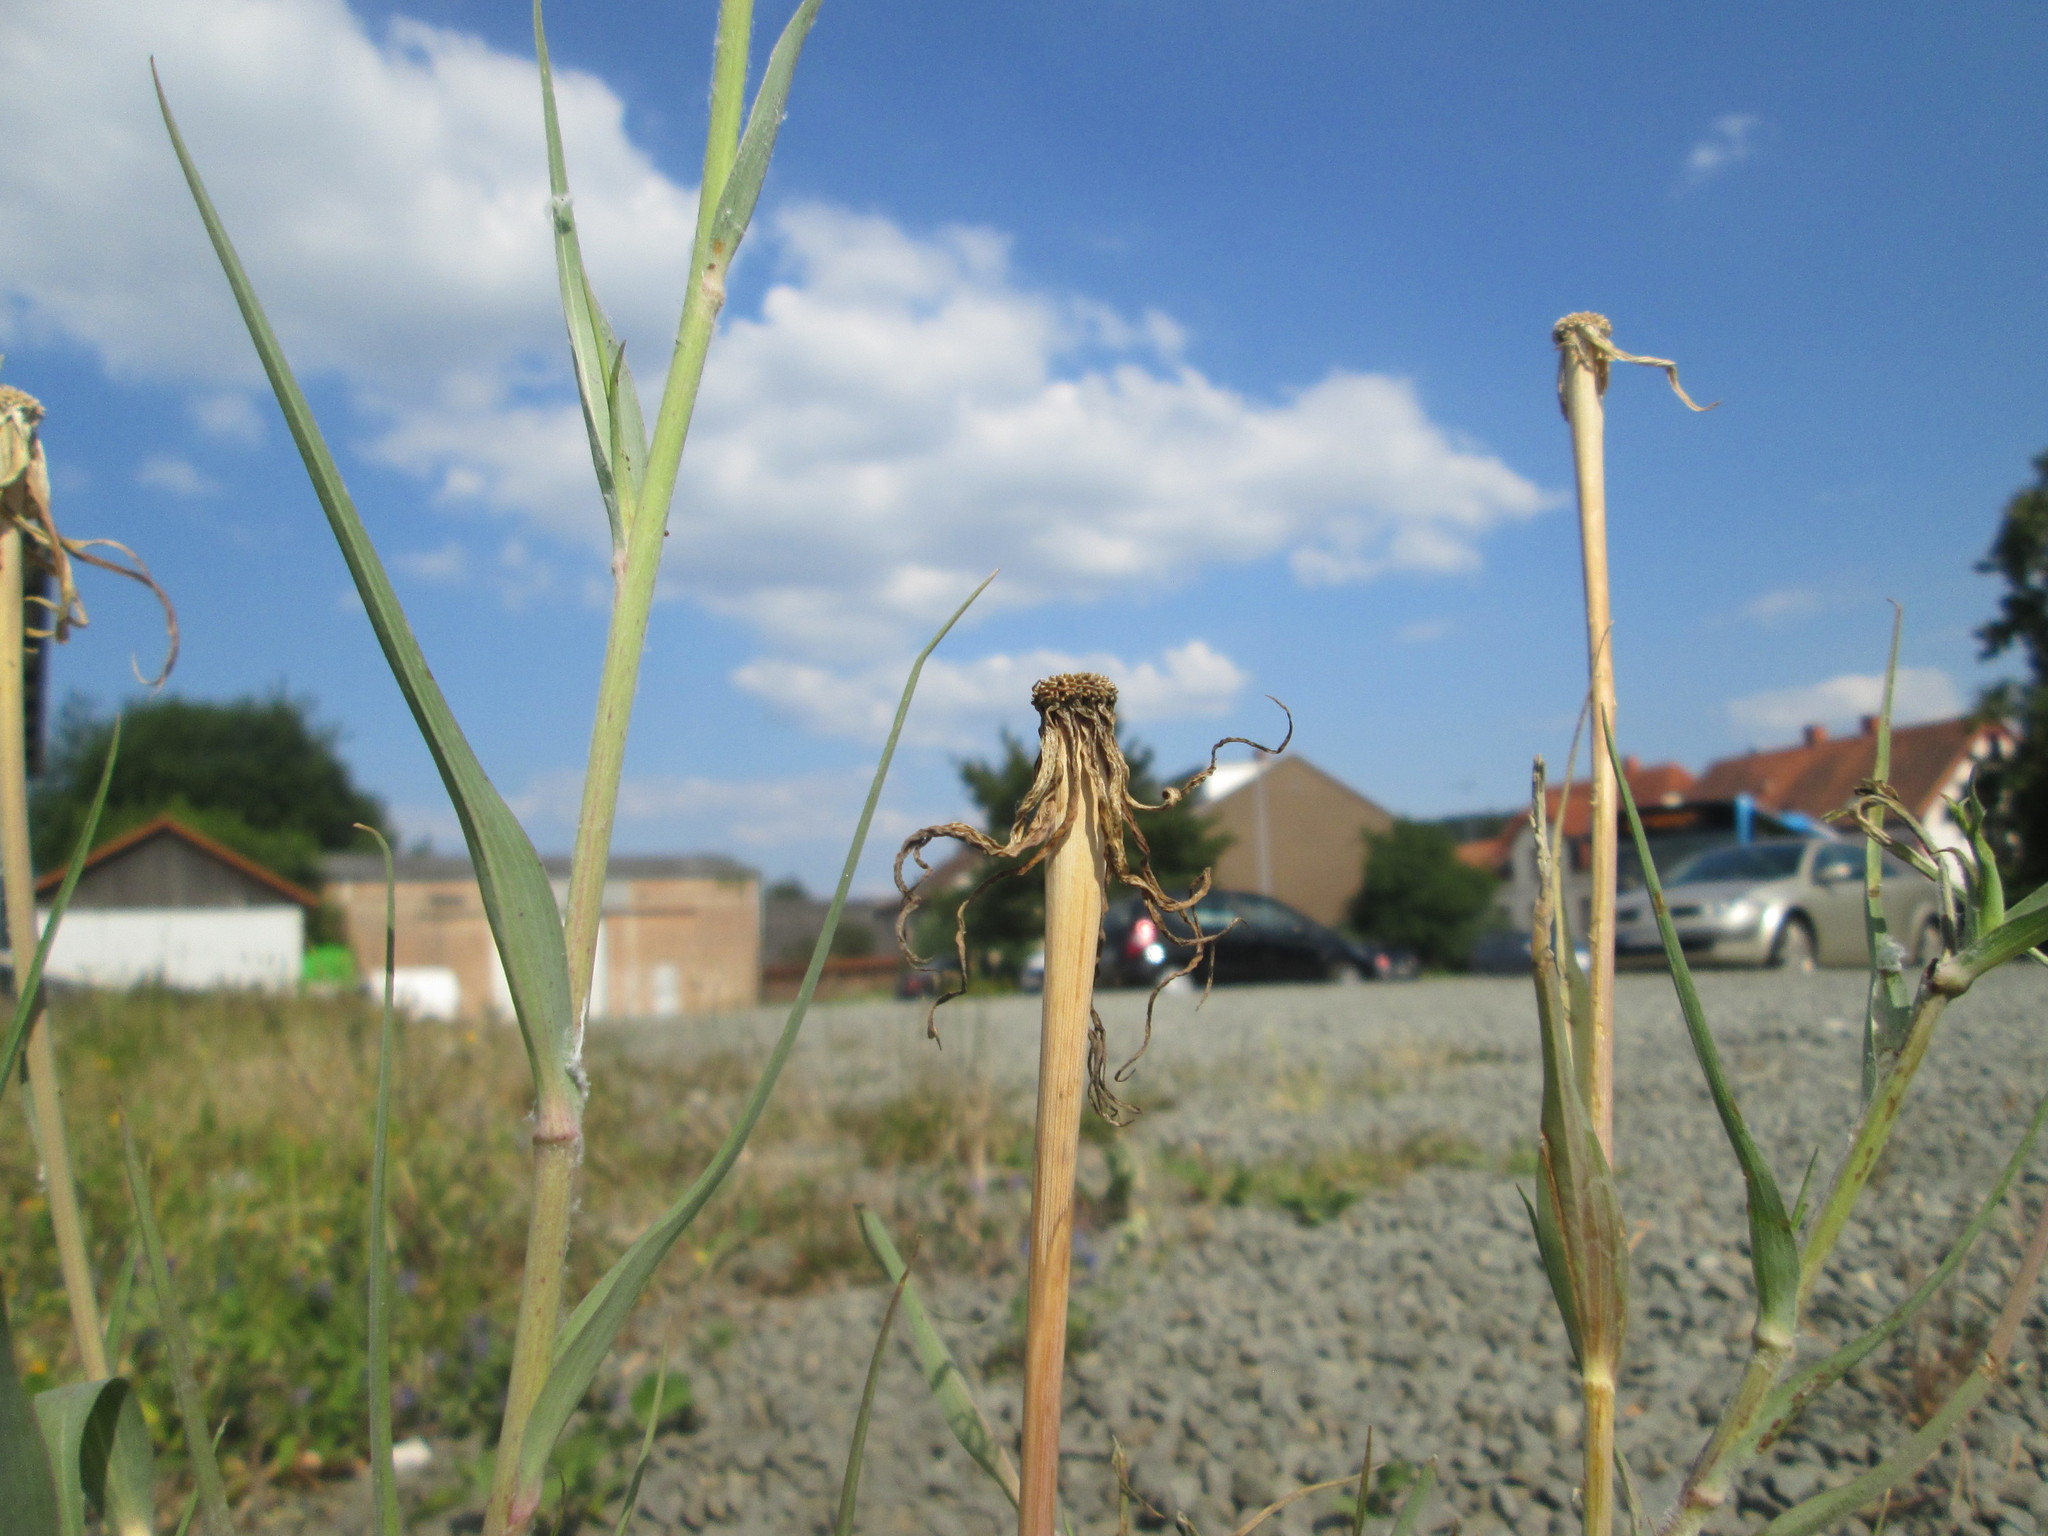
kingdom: Plantae
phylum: Tracheophyta
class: Magnoliopsida
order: Asterales
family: Asteraceae
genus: Tragopogon
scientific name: Tragopogon dubius
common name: Yellow salsify
